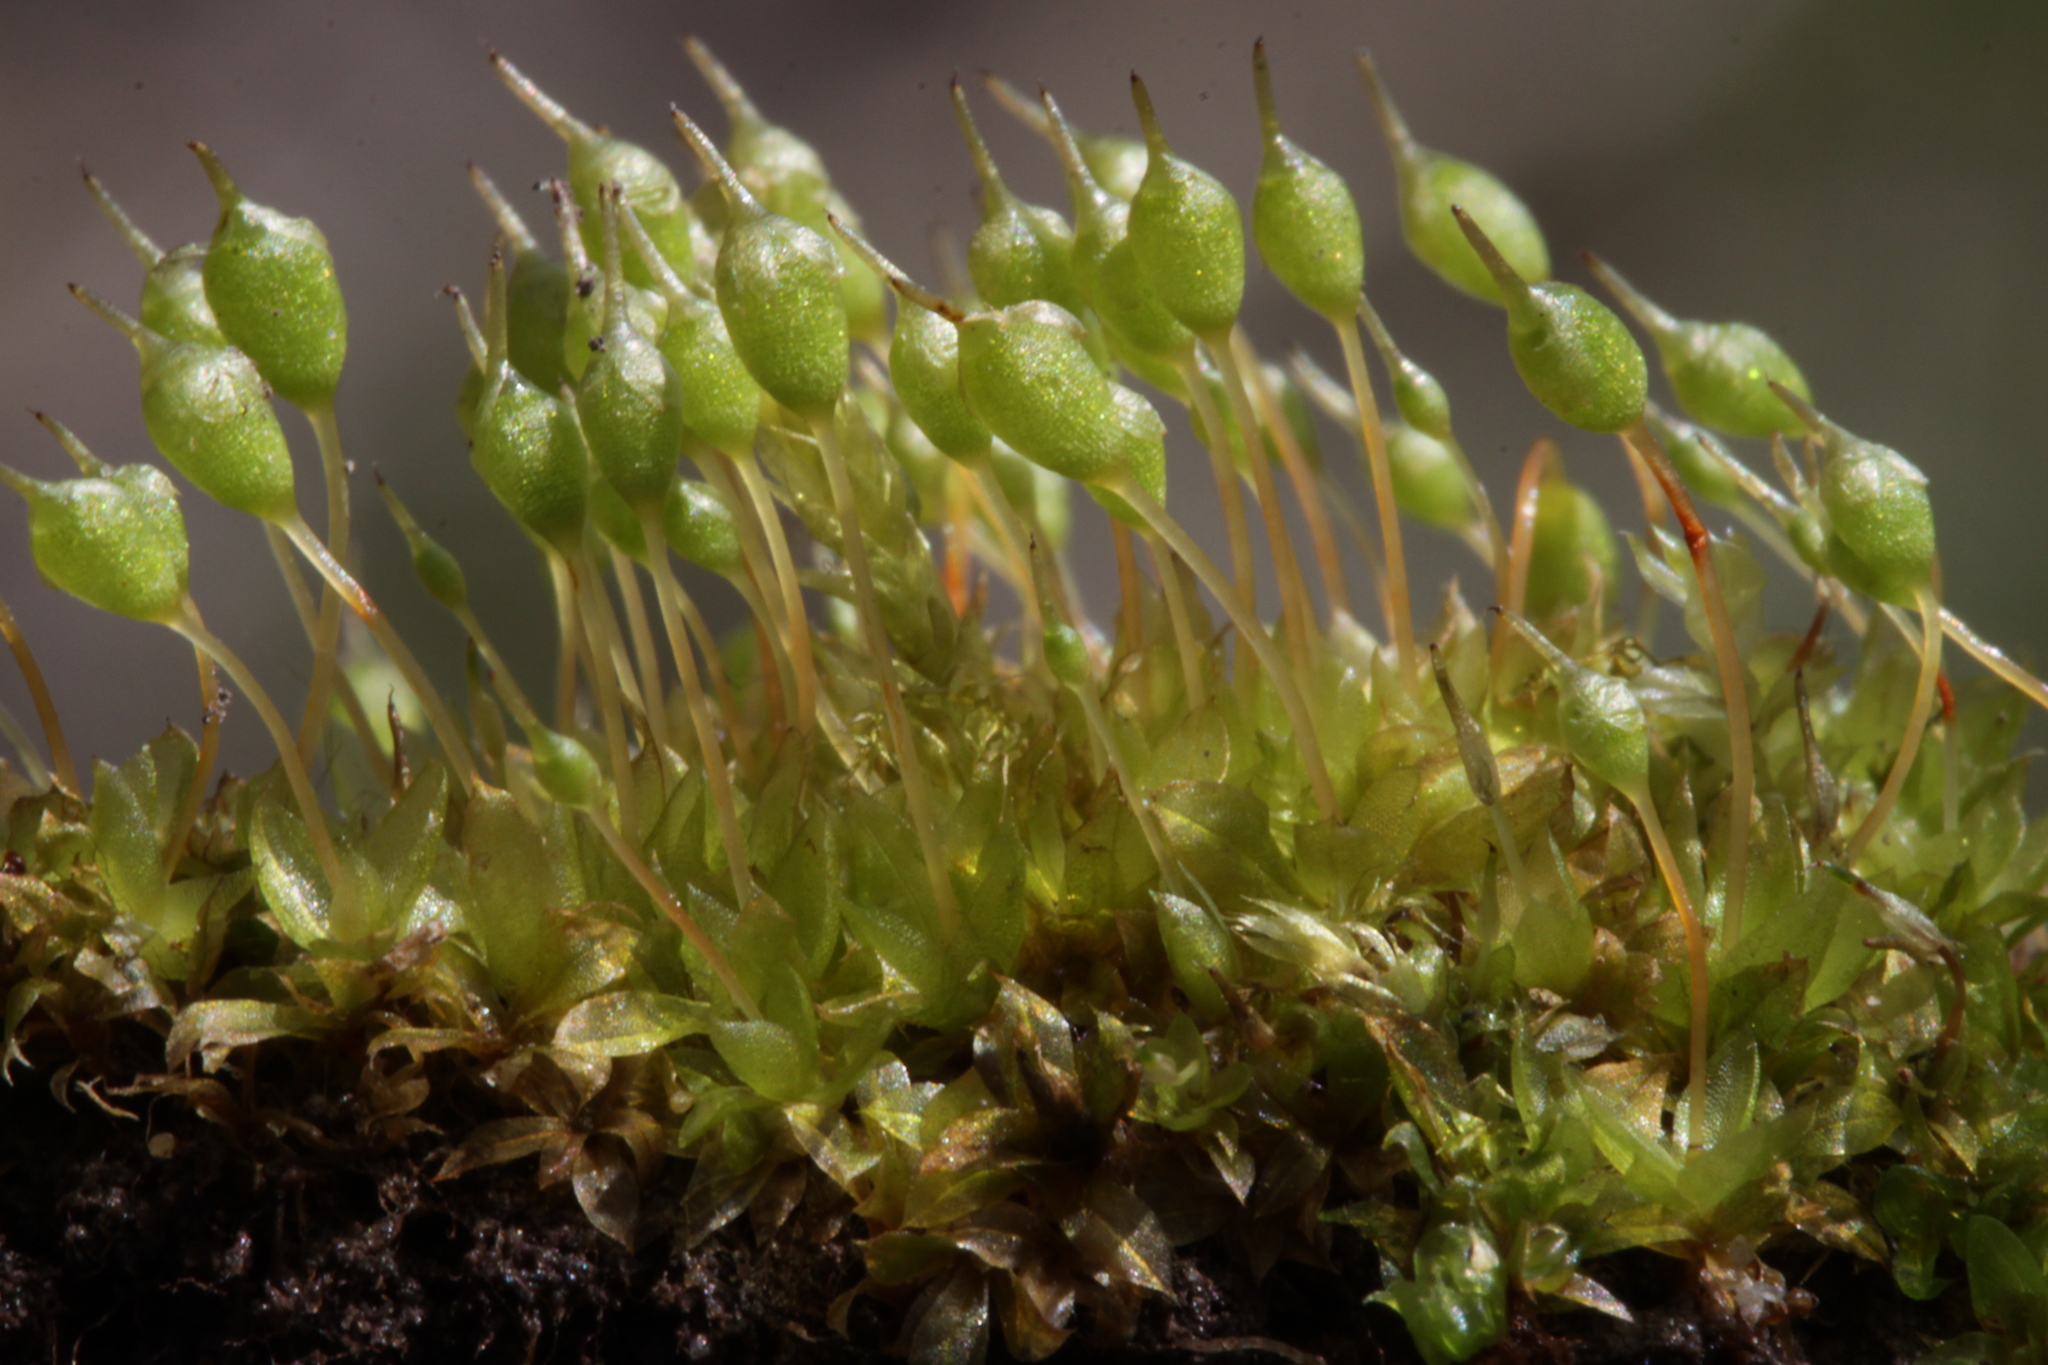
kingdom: Plantae
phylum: Bryophyta
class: Bryopsida
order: Funariales
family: Funariaceae
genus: Physcomitrium
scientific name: Physcomitrium pyriforme
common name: Common bladder-moss
